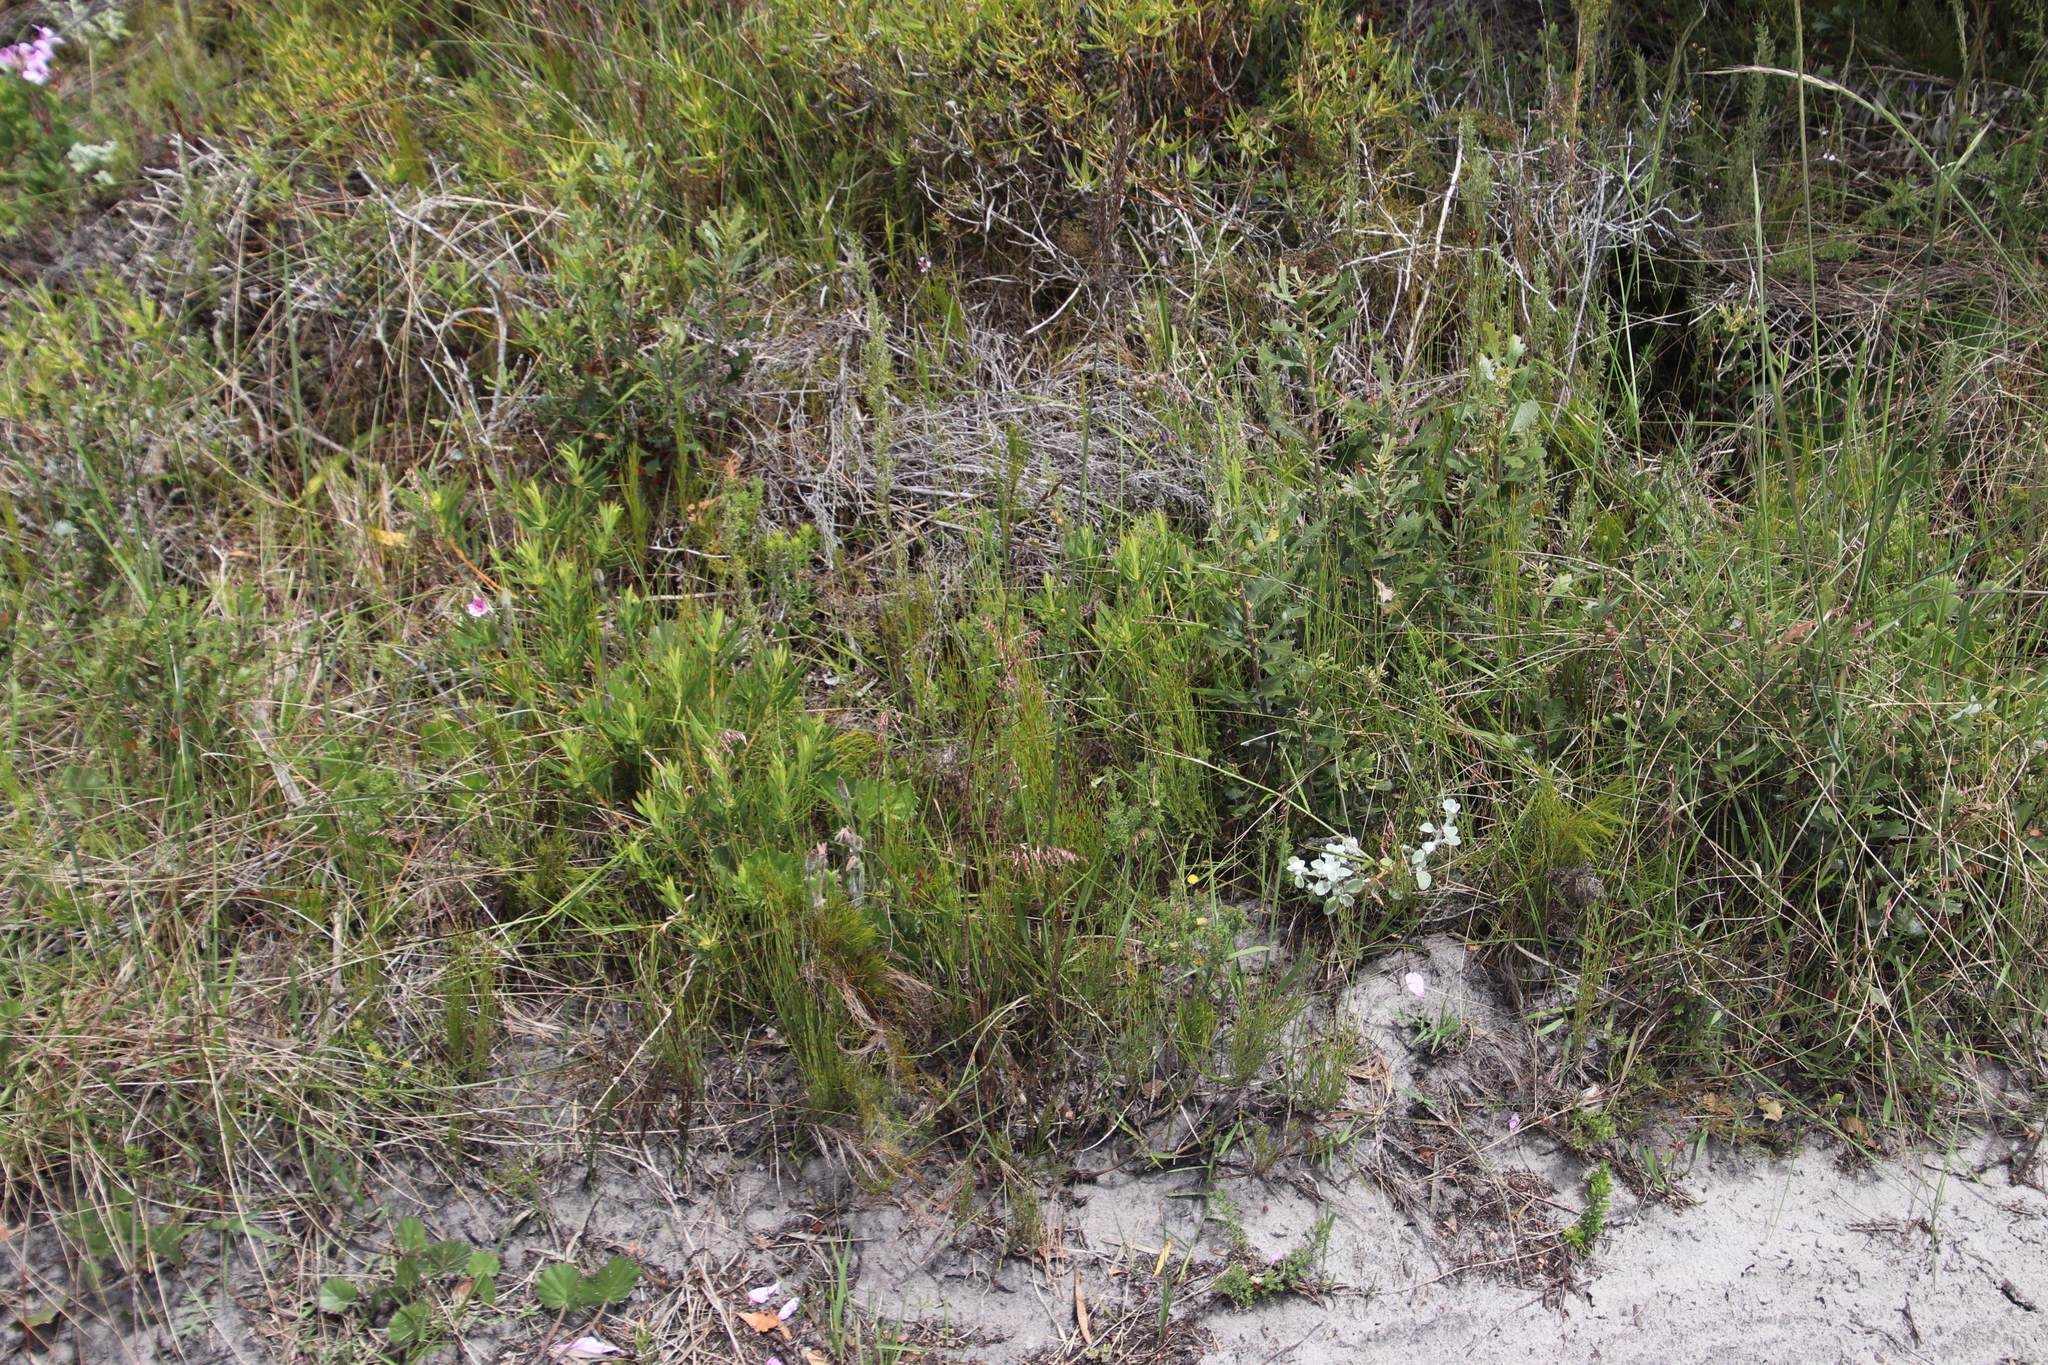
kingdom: Plantae
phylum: Tracheophyta
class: Magnoliopsida
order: Proteales
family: Proteaceae
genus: Leucadendron
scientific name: Leucadendron salignum
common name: Common sunshine conebush
